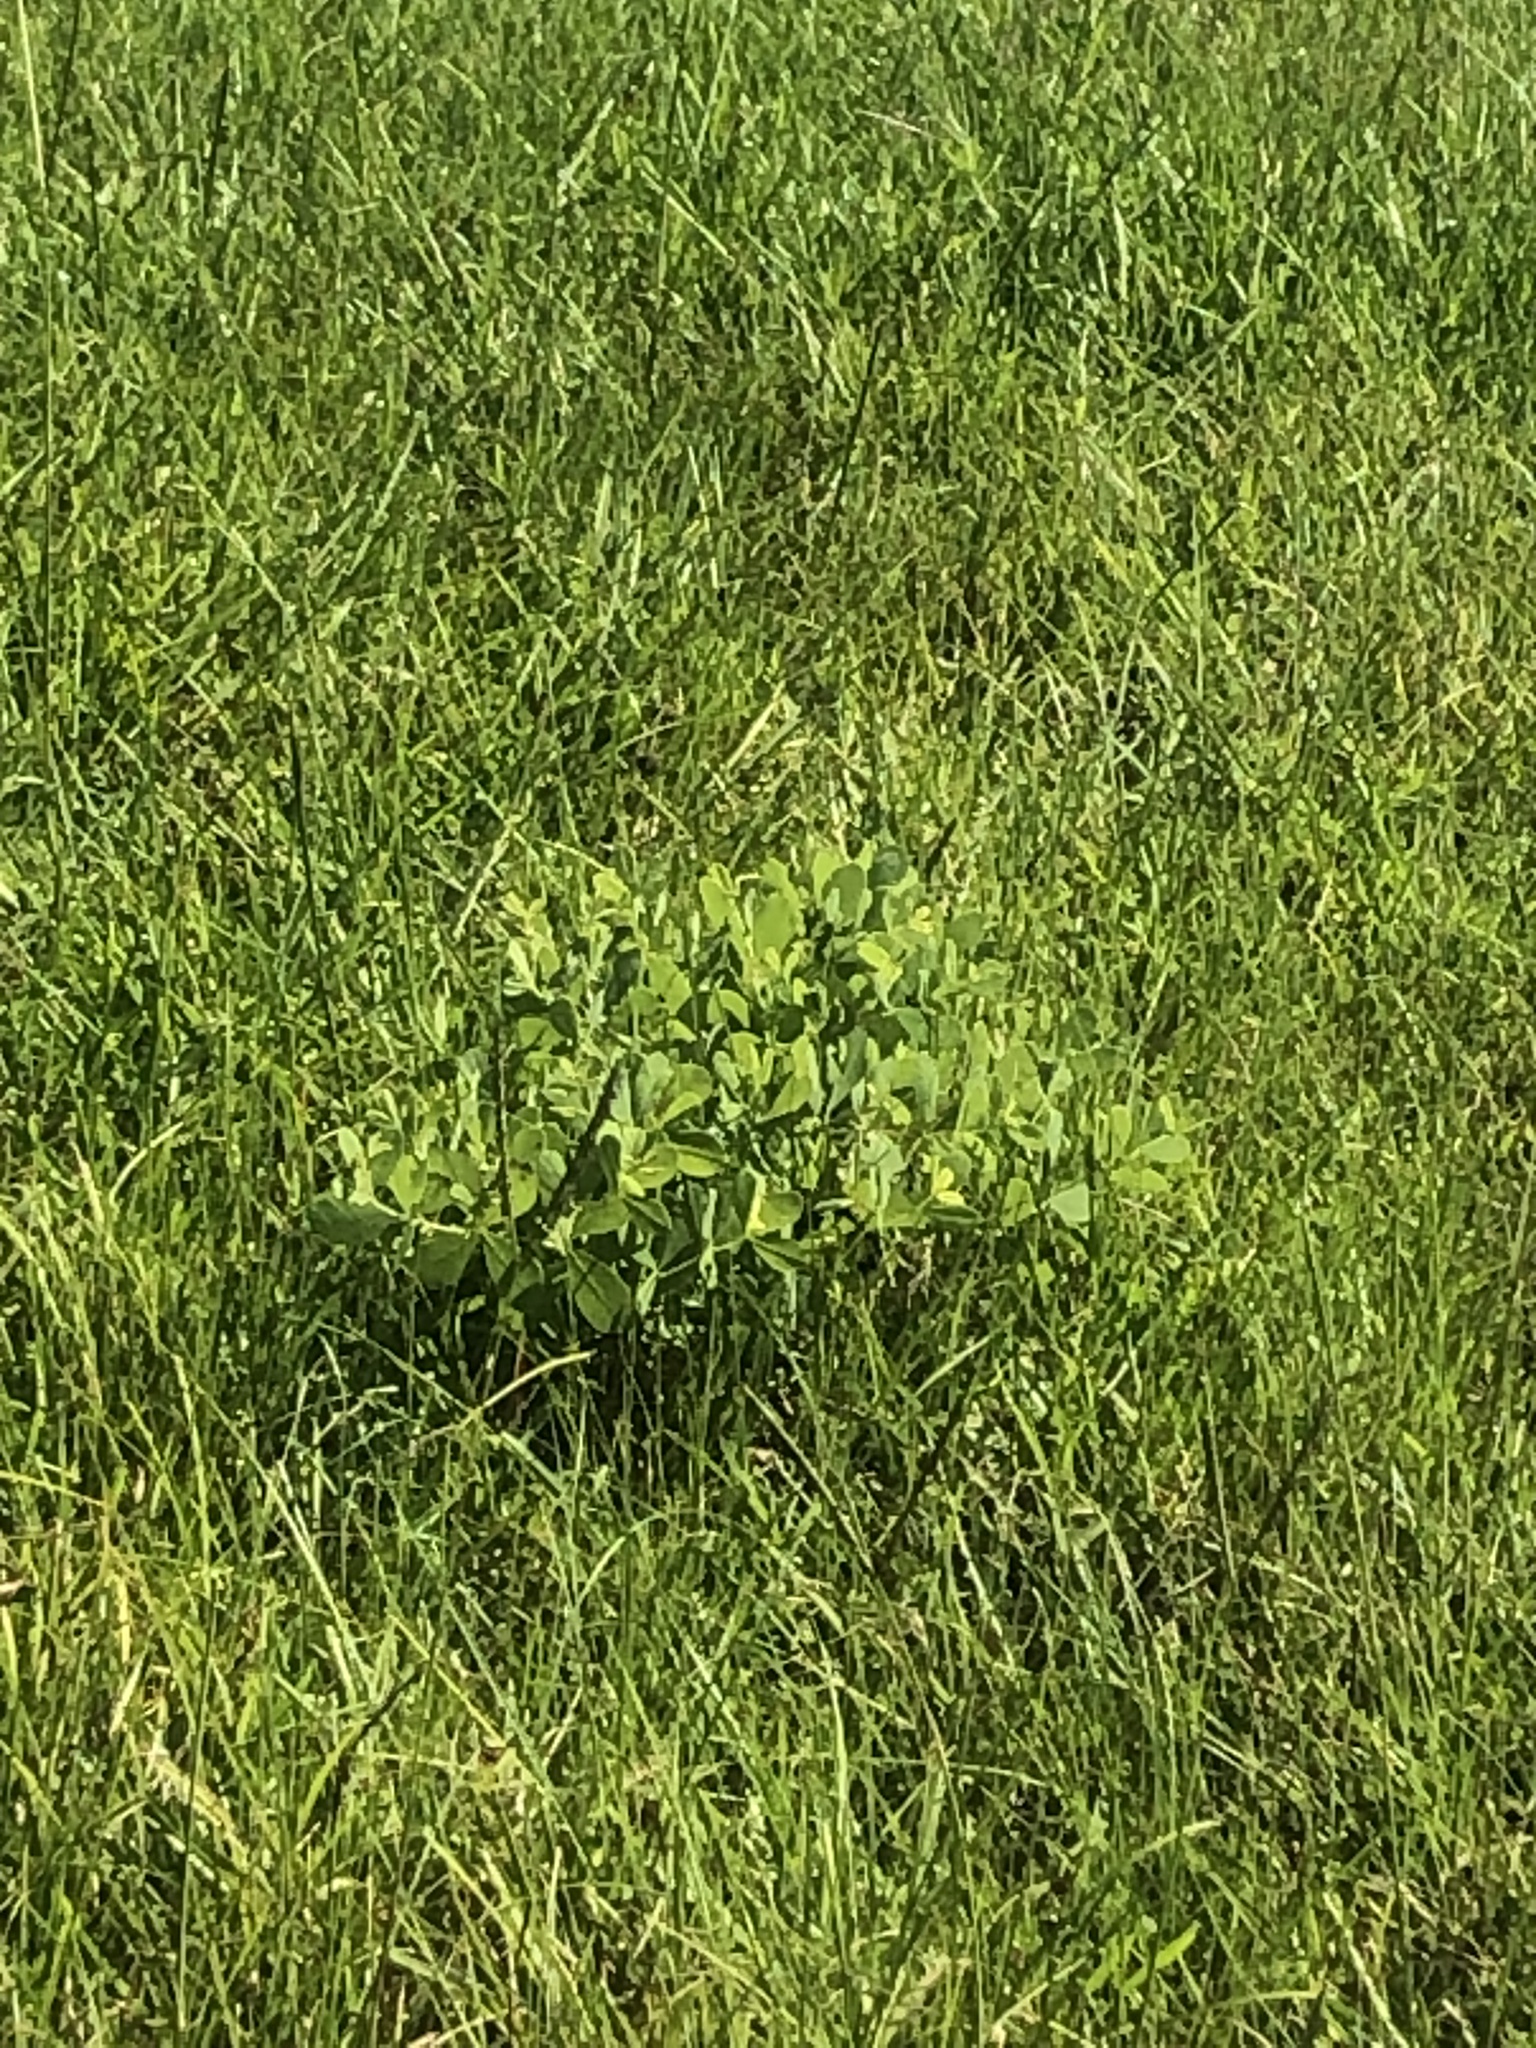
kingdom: Plantae
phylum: Tracheophyta
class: Magnoliopsida
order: Fabales
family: Fabaceae
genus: Baptisia
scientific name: Baptisia alba
